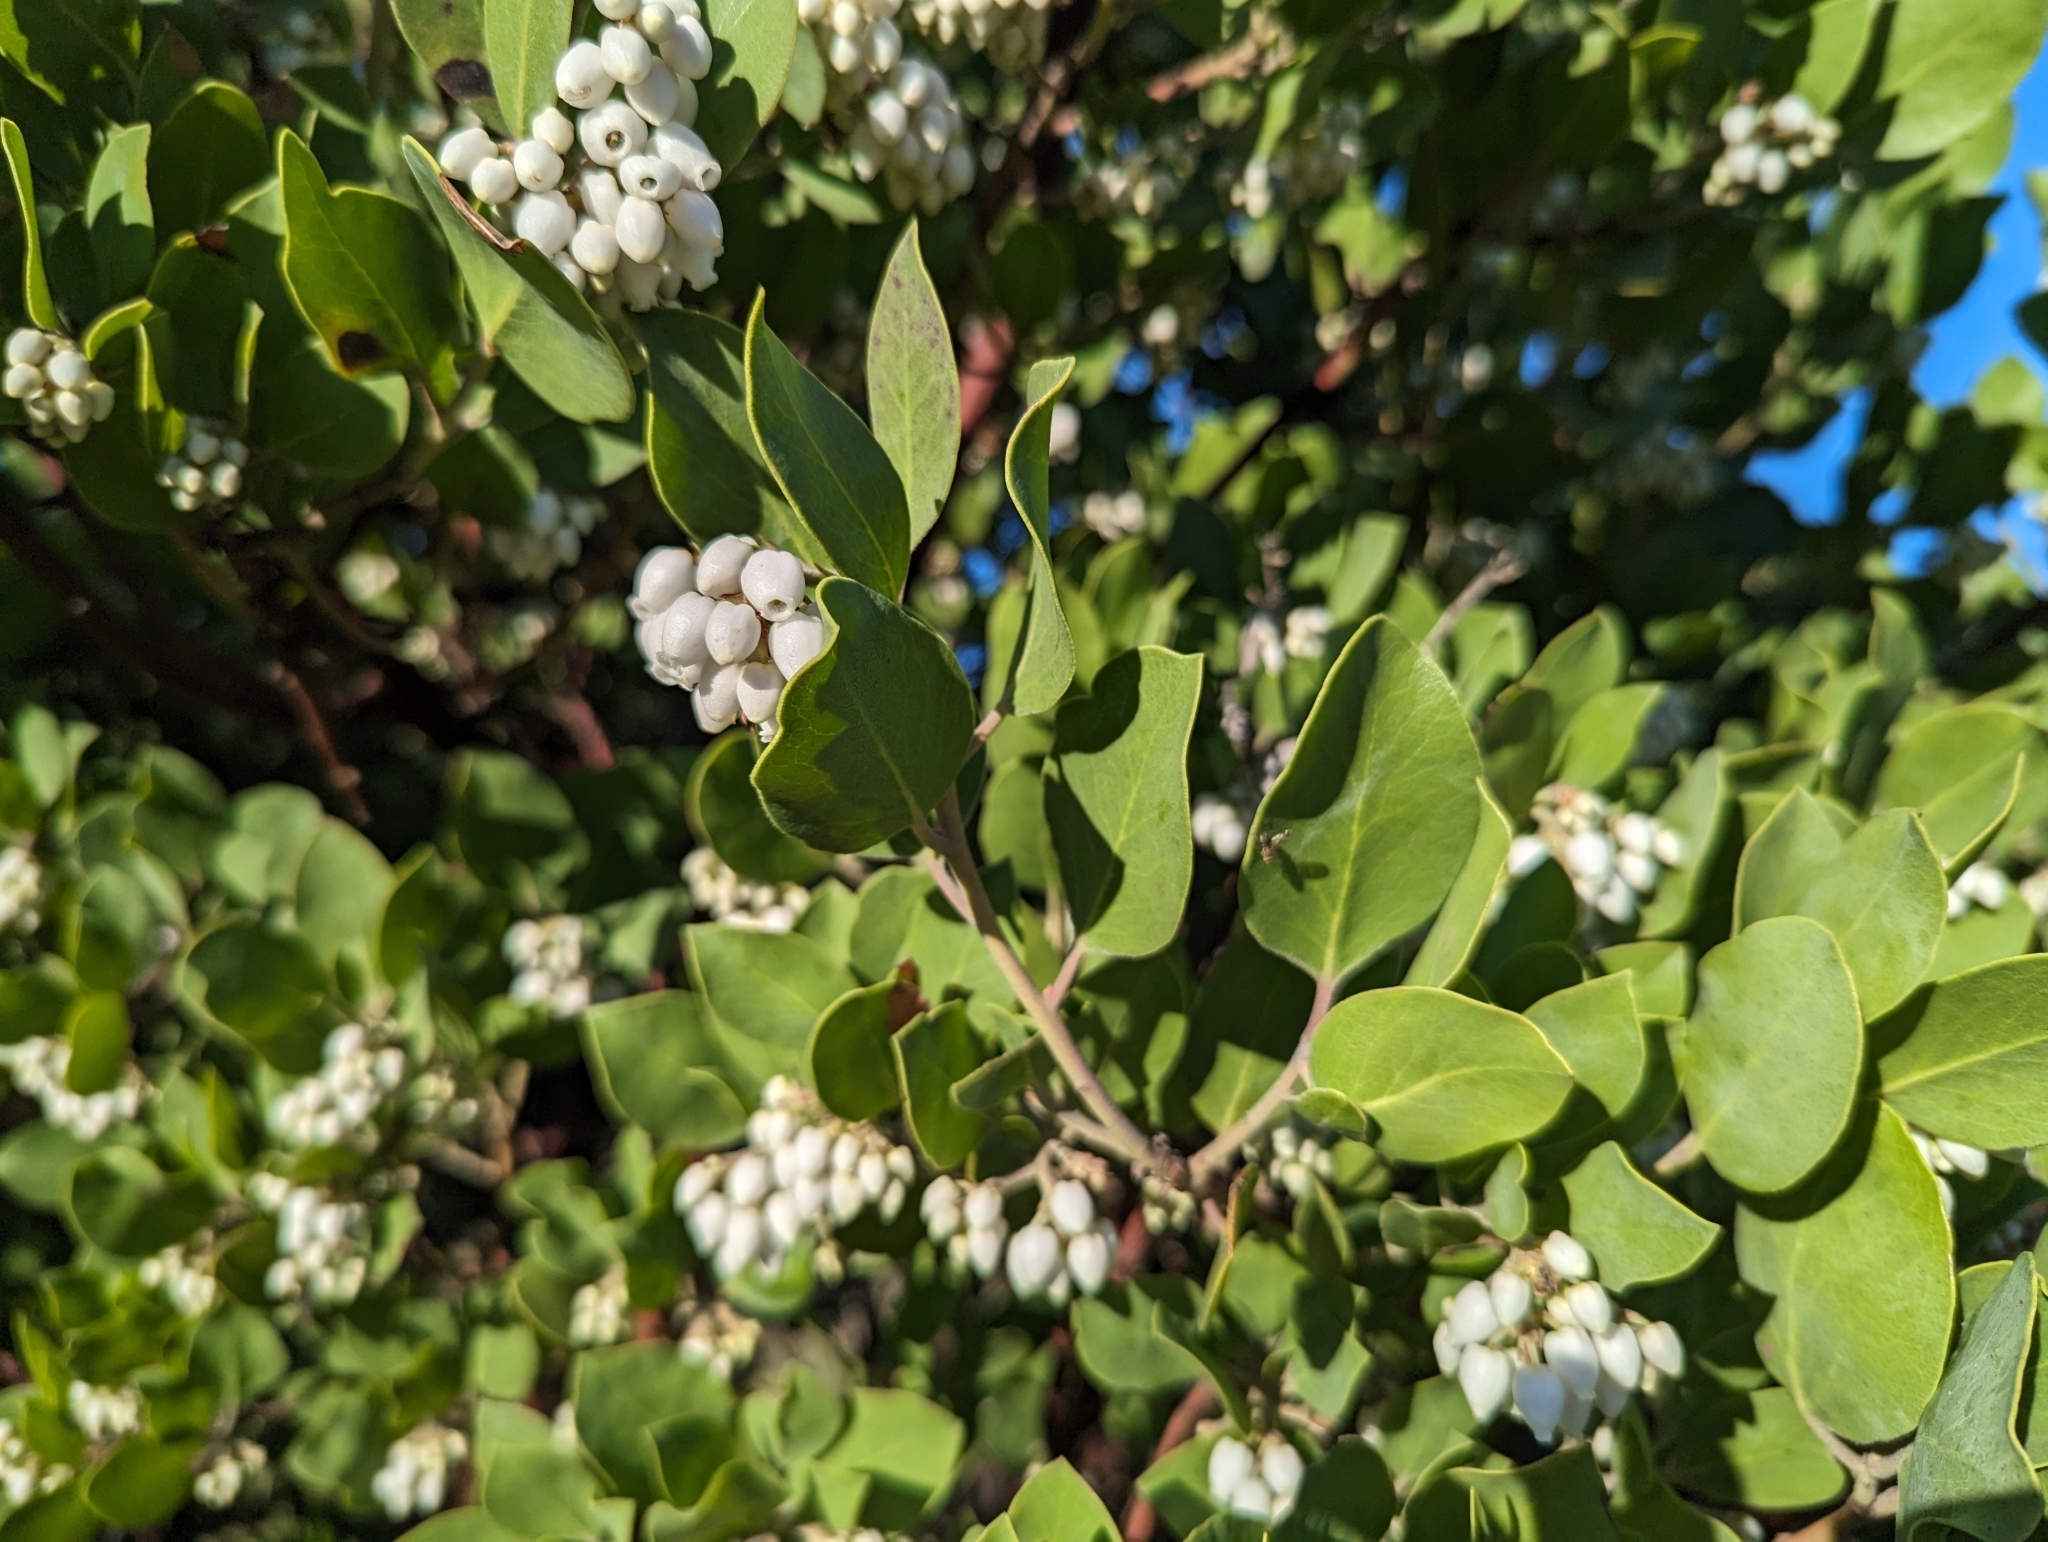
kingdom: Plantae
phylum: Tracheophyta
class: Magnoliopsida
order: Ericales
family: Ericaceae
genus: Arctostaphylos
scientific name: Arctostaphylos manzanita
